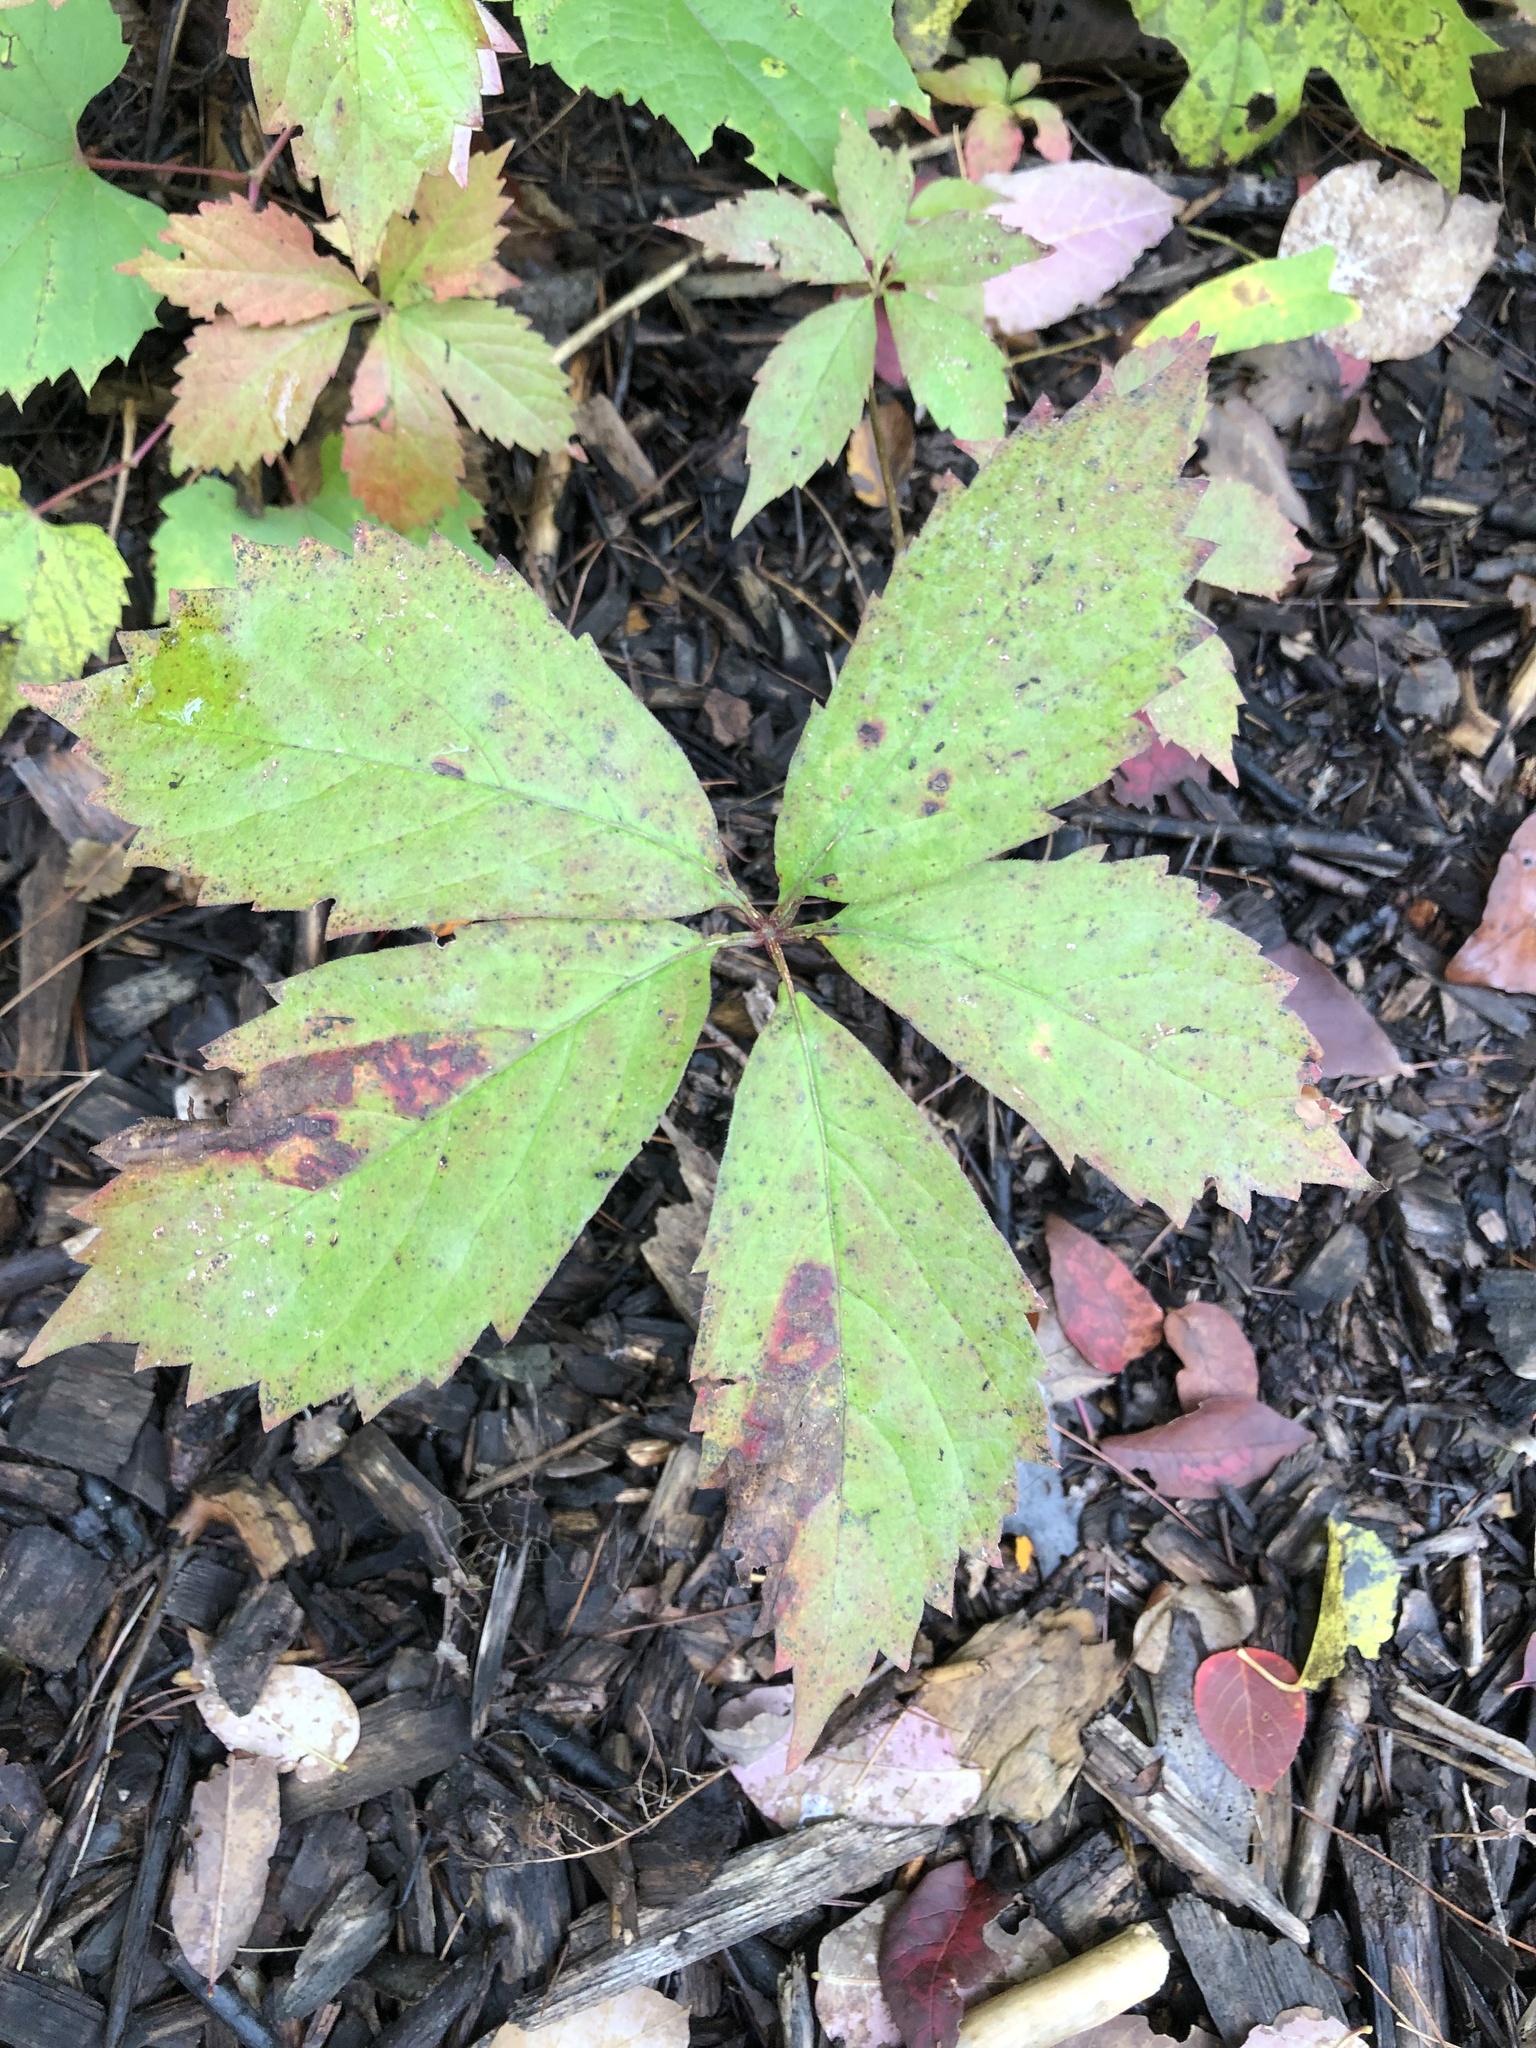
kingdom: Plantae
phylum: Tracheophyta
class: Magnoliopsida
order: Vitales
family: Vitaceae
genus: Parthenocissus
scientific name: Parthenocissus quinquefolia
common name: Virginia-creeper
